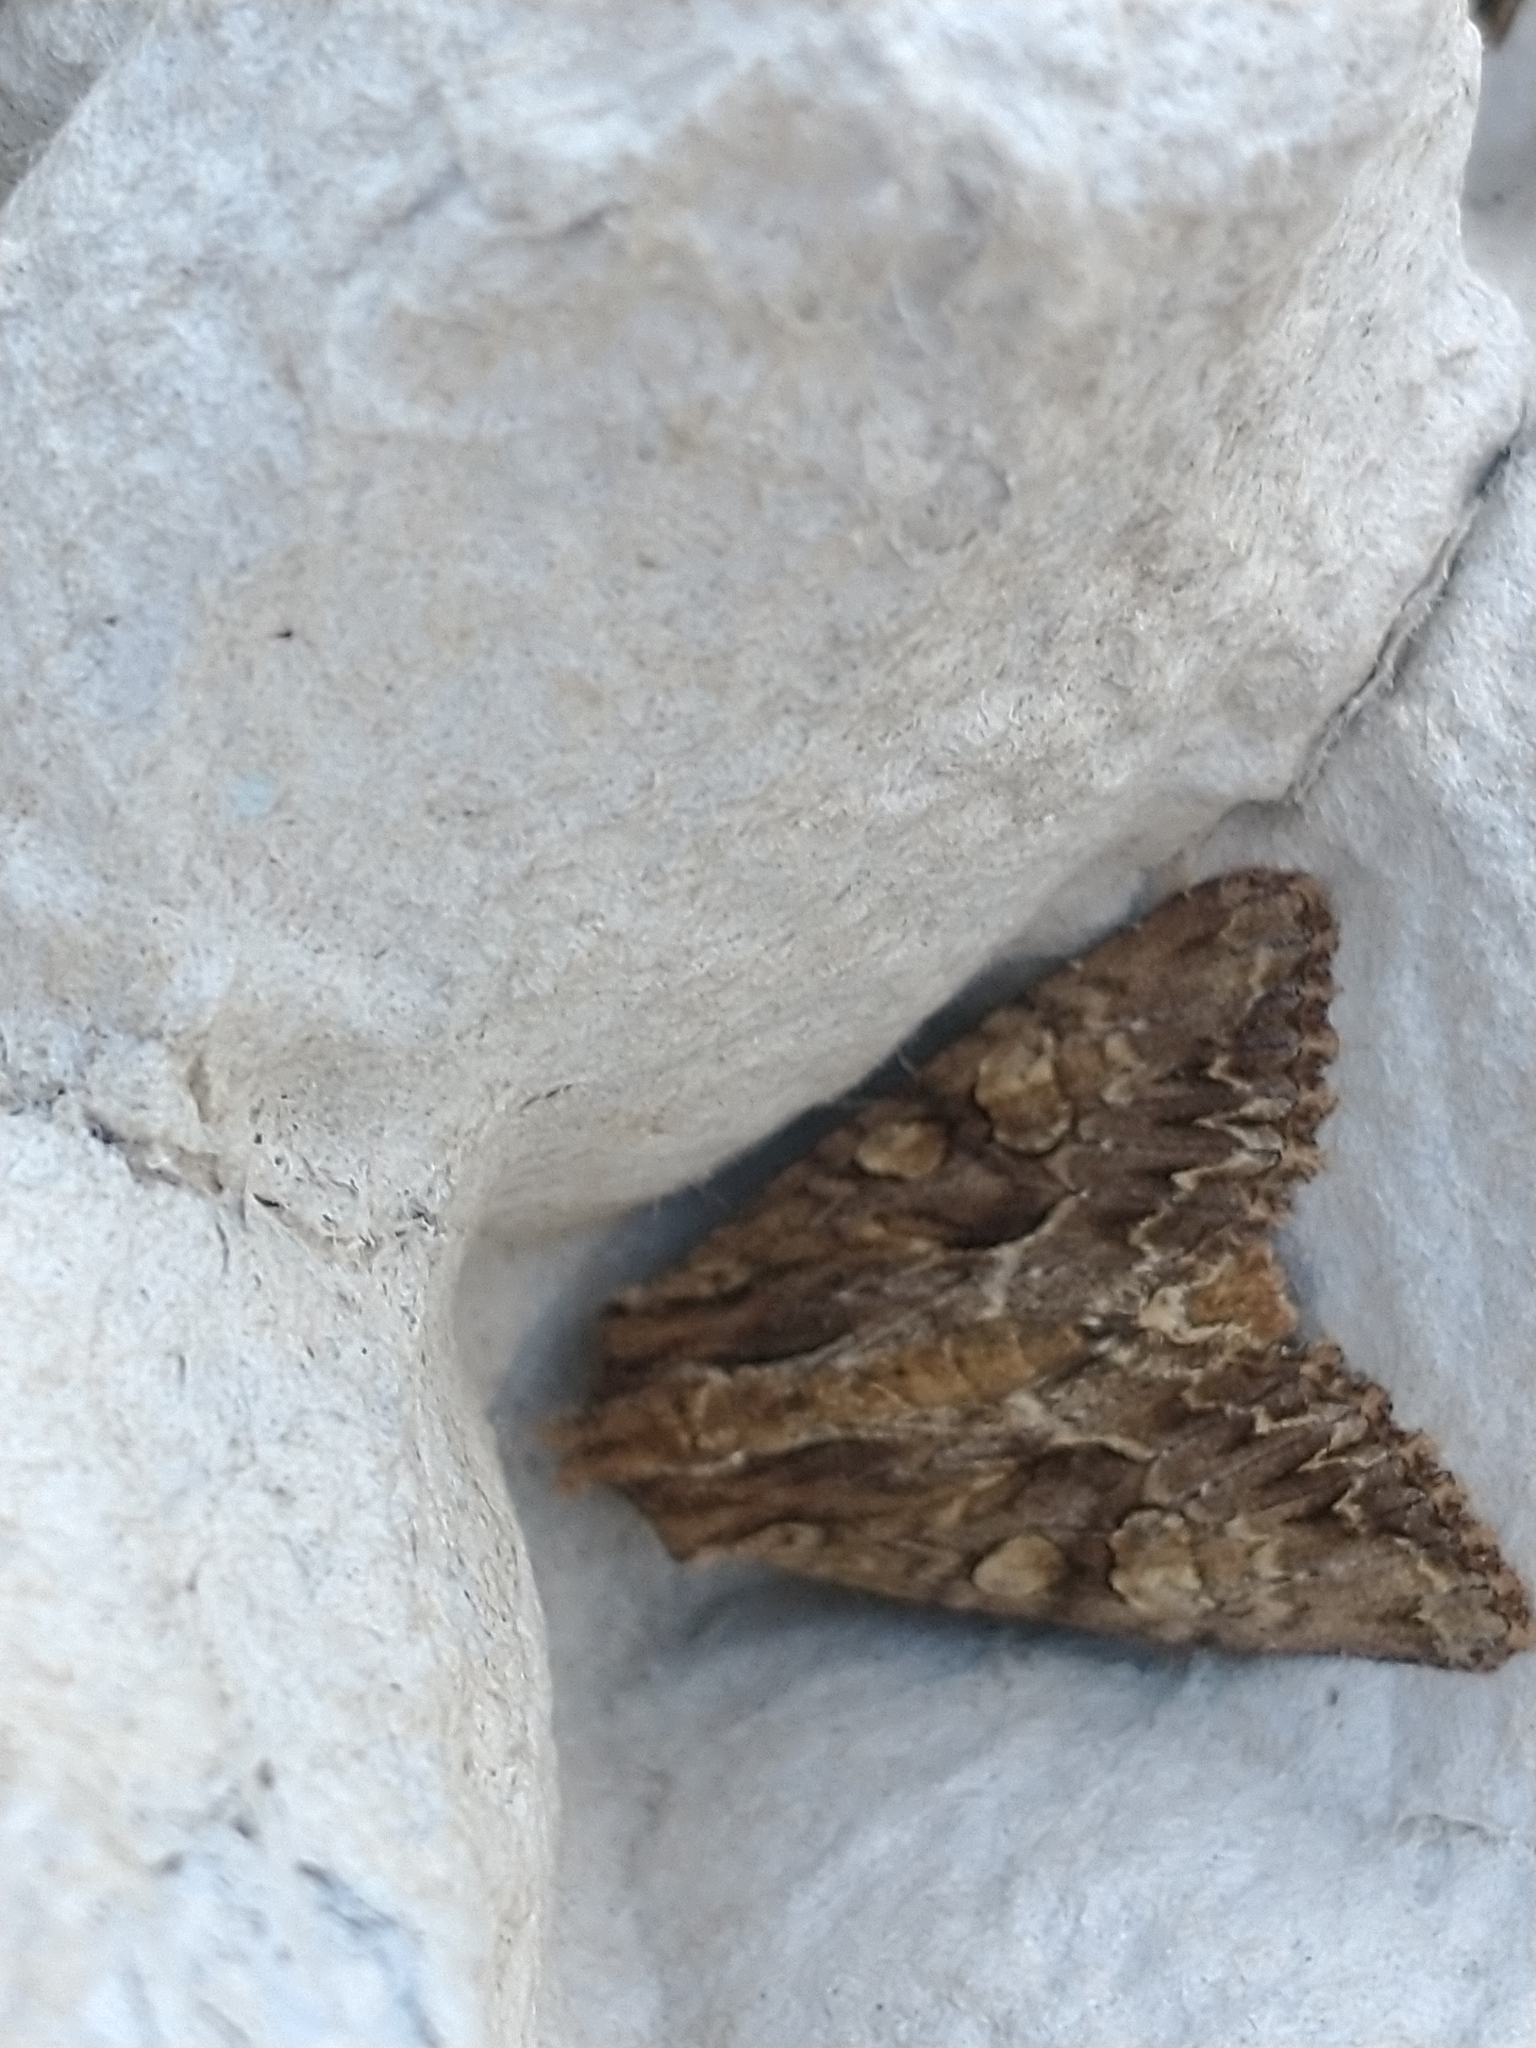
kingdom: Animalia
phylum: Arthropoda
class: Insecta
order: Lepidoptera
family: Noctuidae
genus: Apamea
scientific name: Apamea monoglypha
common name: Dark arches
